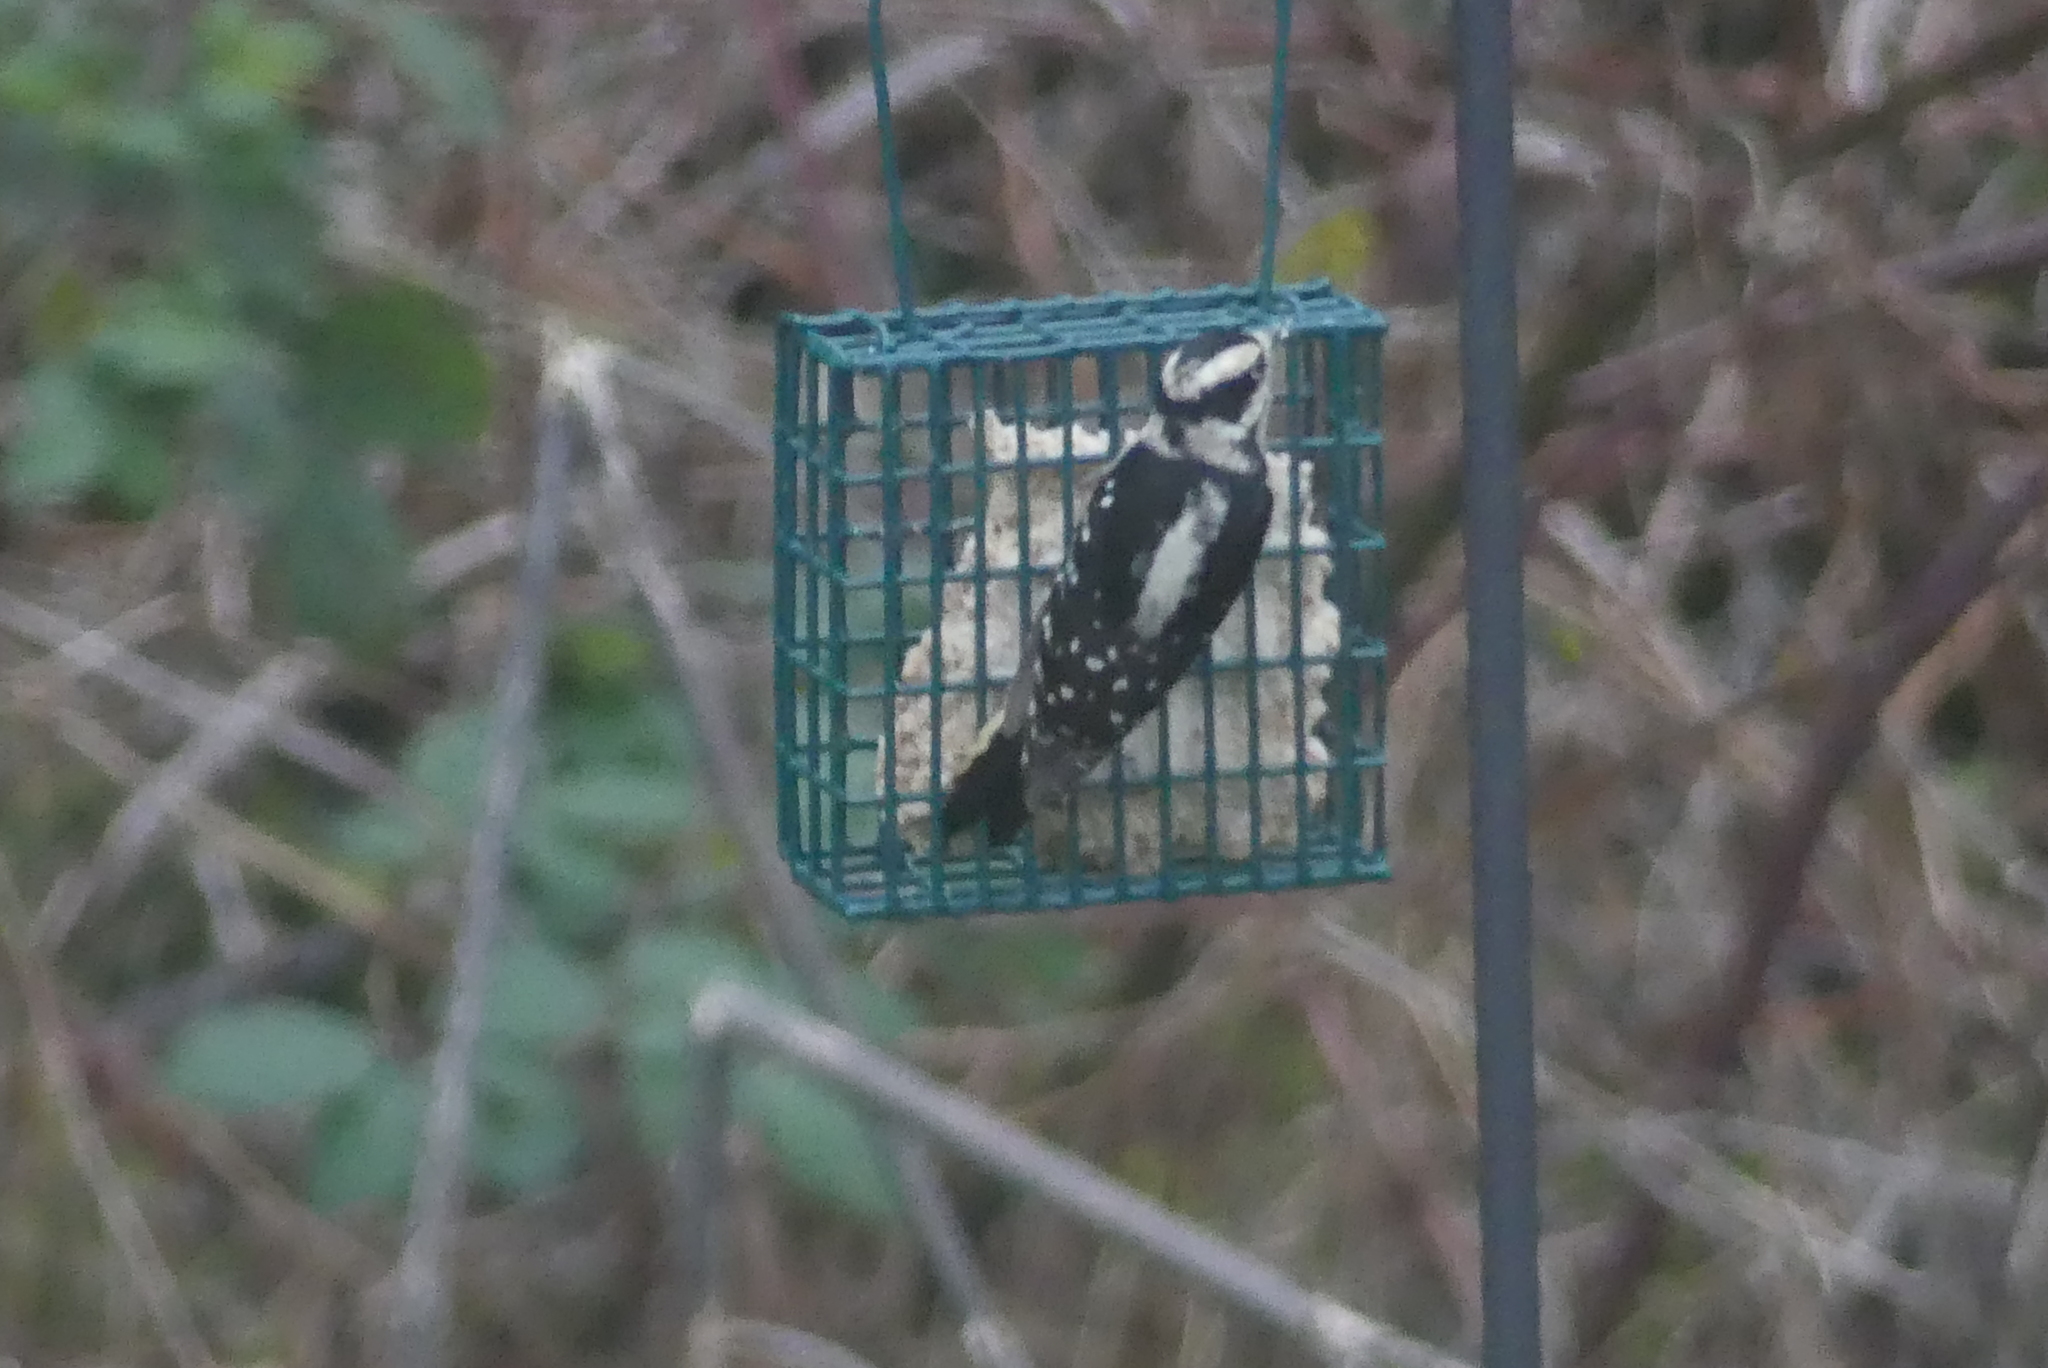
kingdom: Animalia
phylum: Chordata
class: Aves
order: Piciformes
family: Picidae
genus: Dryobates
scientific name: Dryobates pubescens
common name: Downy woodpecker
